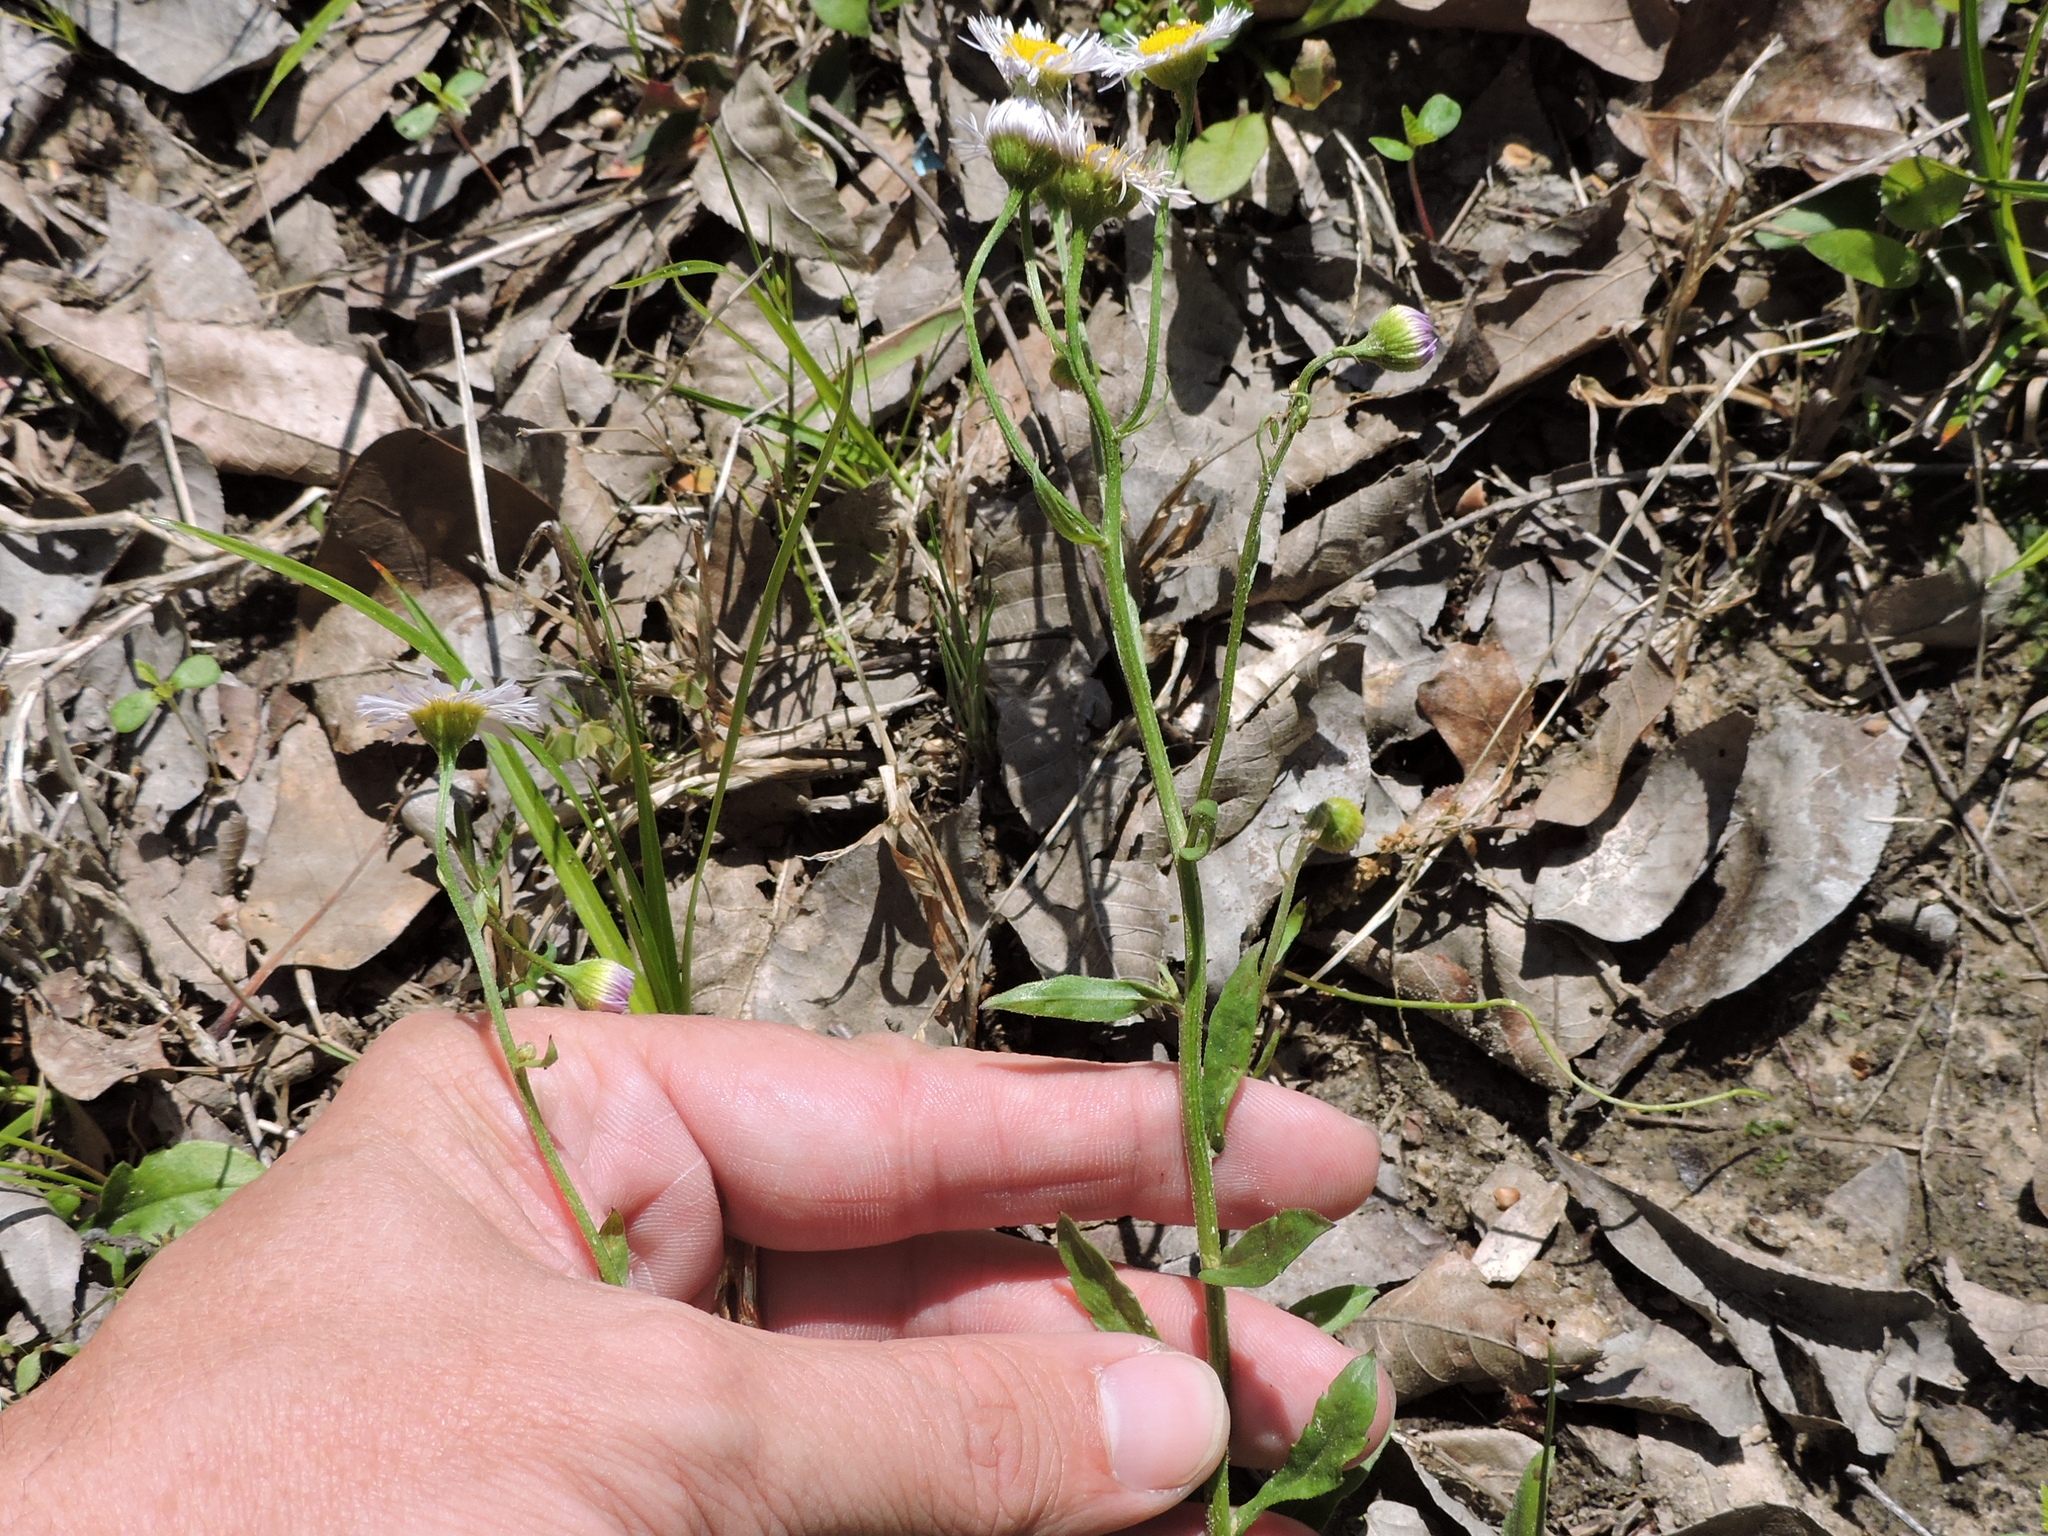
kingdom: Plantae
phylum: Tracheophyta
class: Magnoliopsida
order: Asterales
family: Asteraceae
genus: Erigeron
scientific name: Erigeron strigosus
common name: Common eastern fleabane
